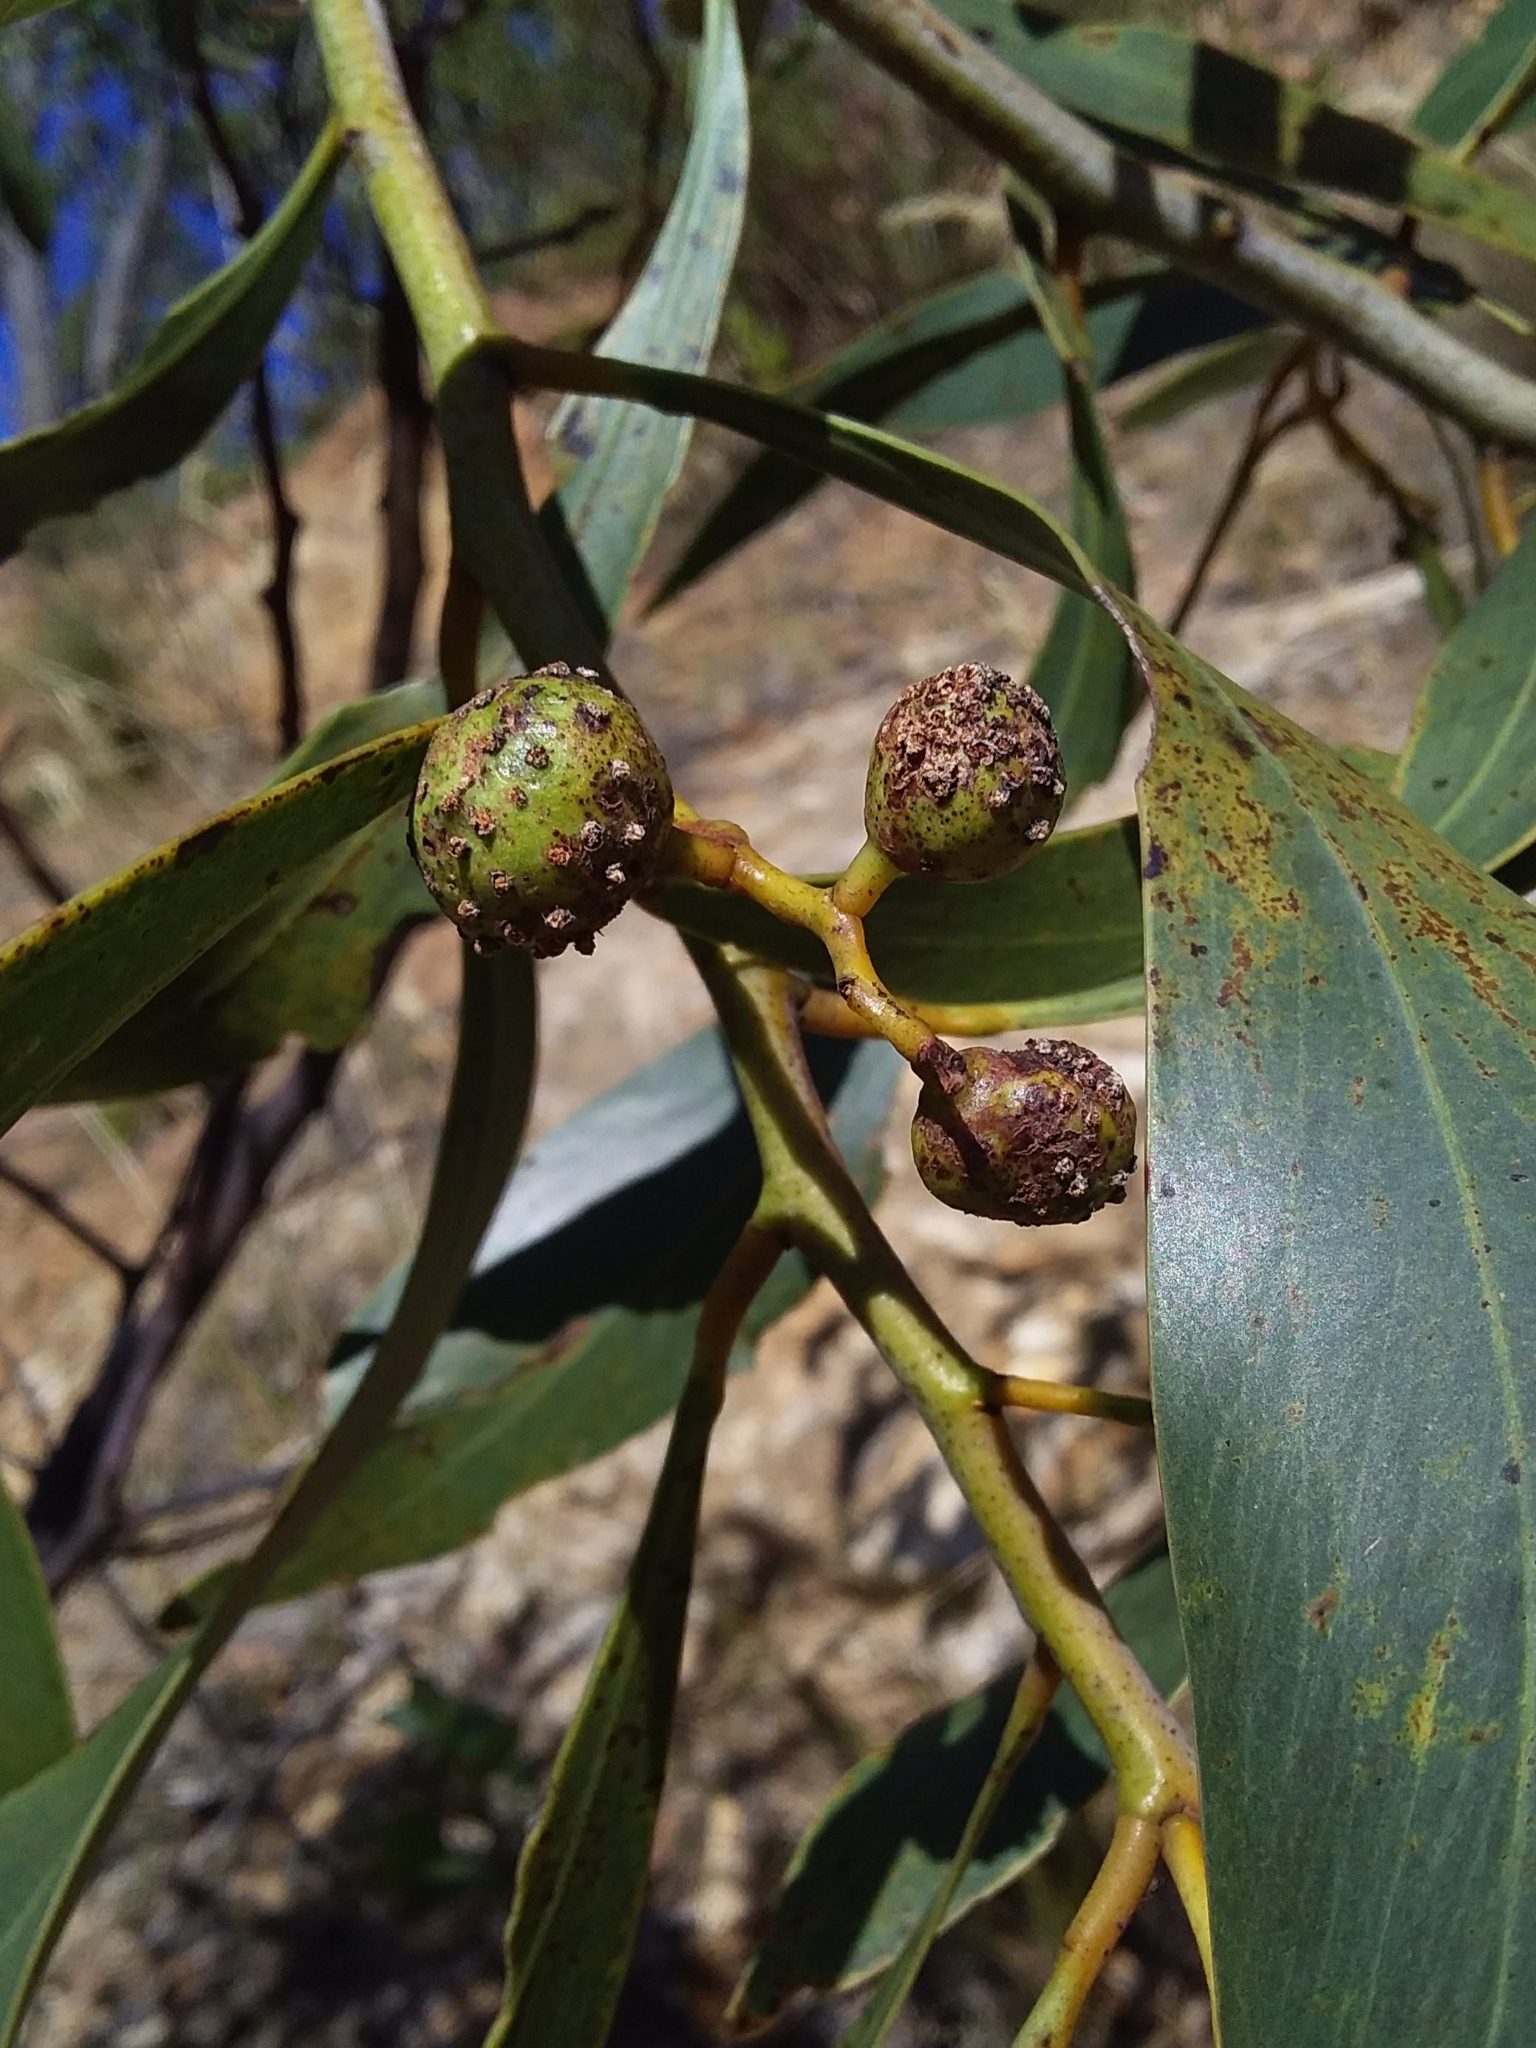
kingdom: Animalia
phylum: Arthropoda
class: Insecta
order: Hymenoptera
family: Pteromalidae
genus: Trichilogaster
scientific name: Trichilogaster signiventris
